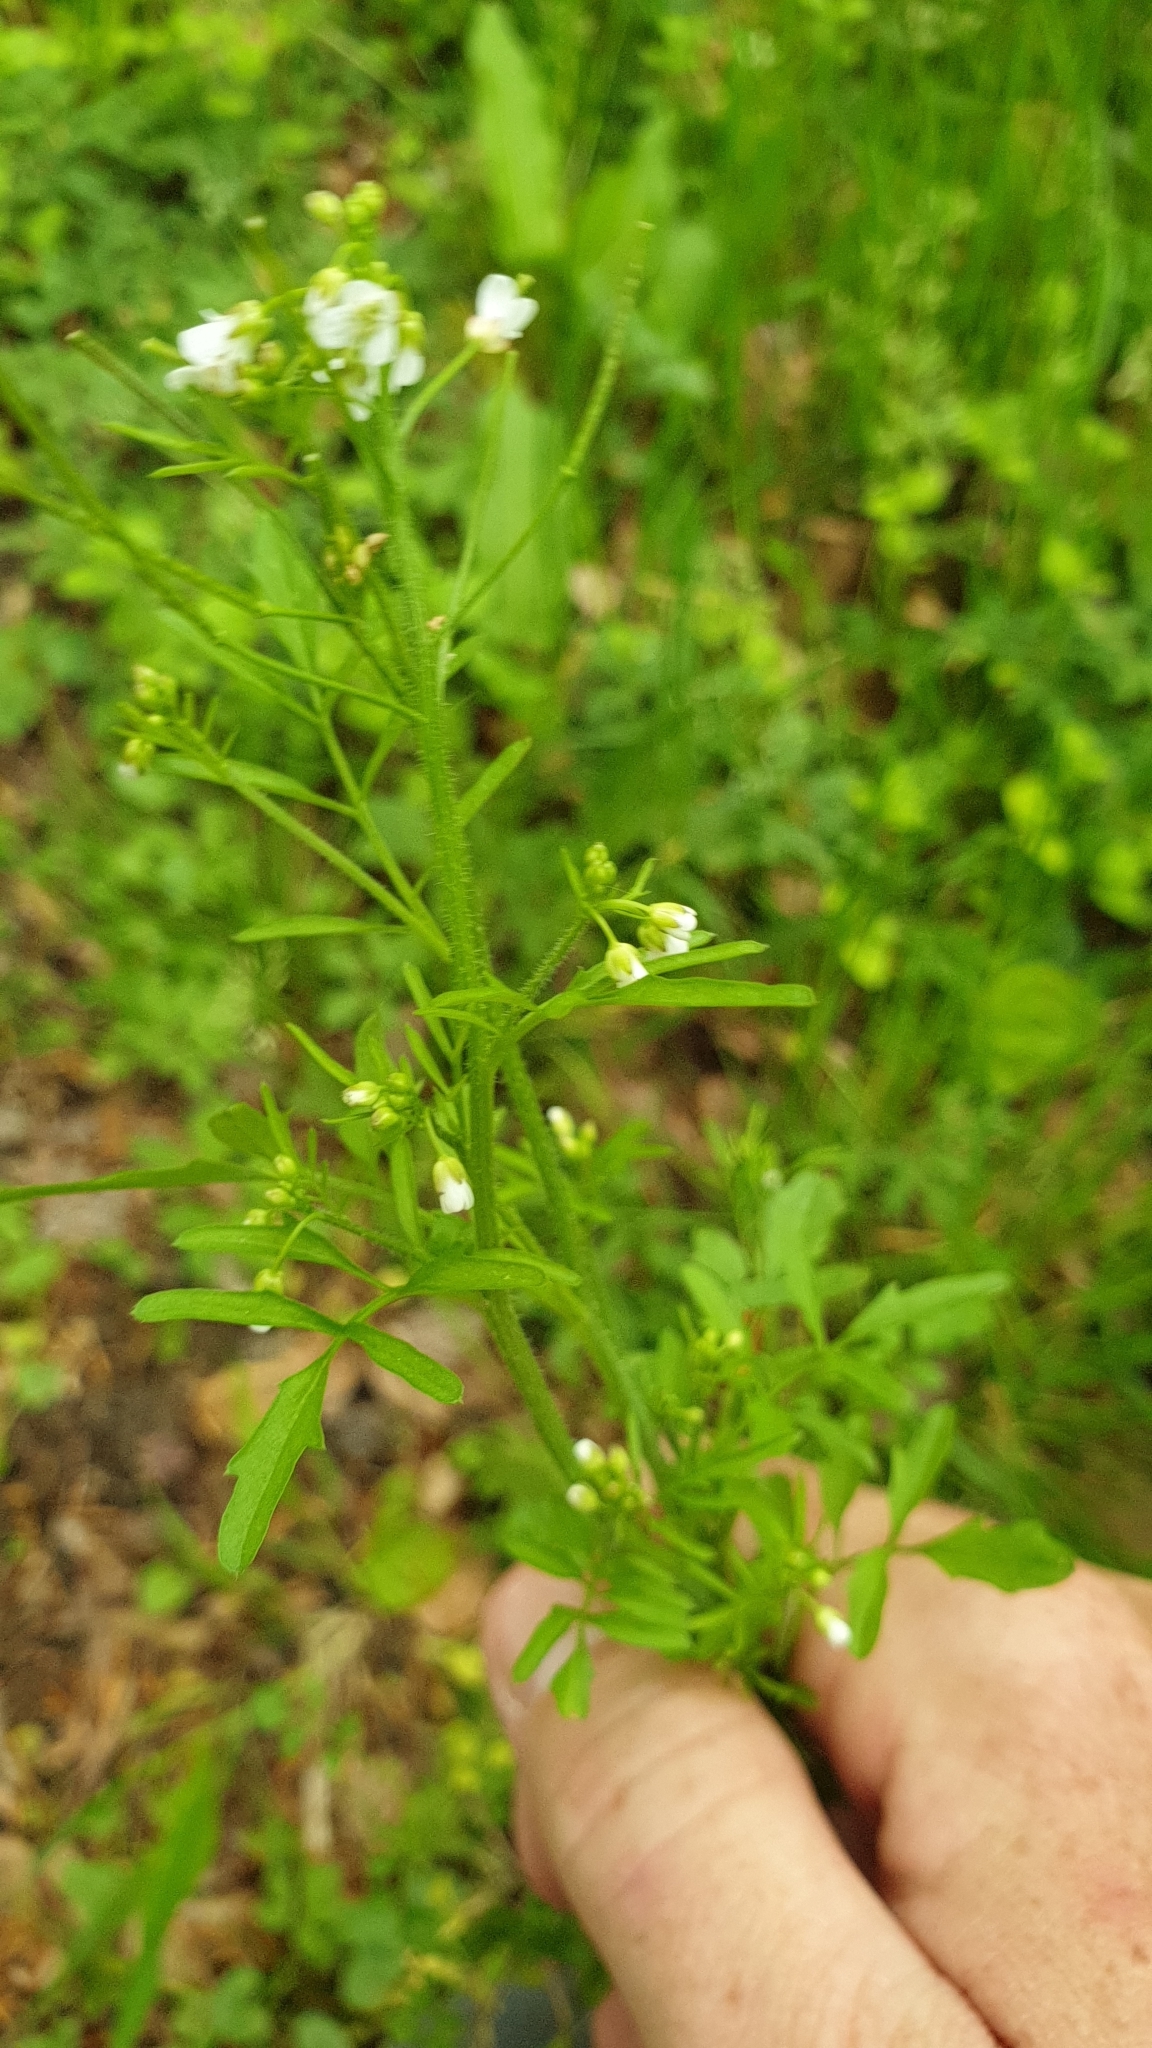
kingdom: Plantae
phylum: Tracheophyta
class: Magnoliopsida
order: Brassicales
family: Brassicaceae
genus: Cardamine
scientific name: Cardamine flexuosa
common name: Woodland bittercress
